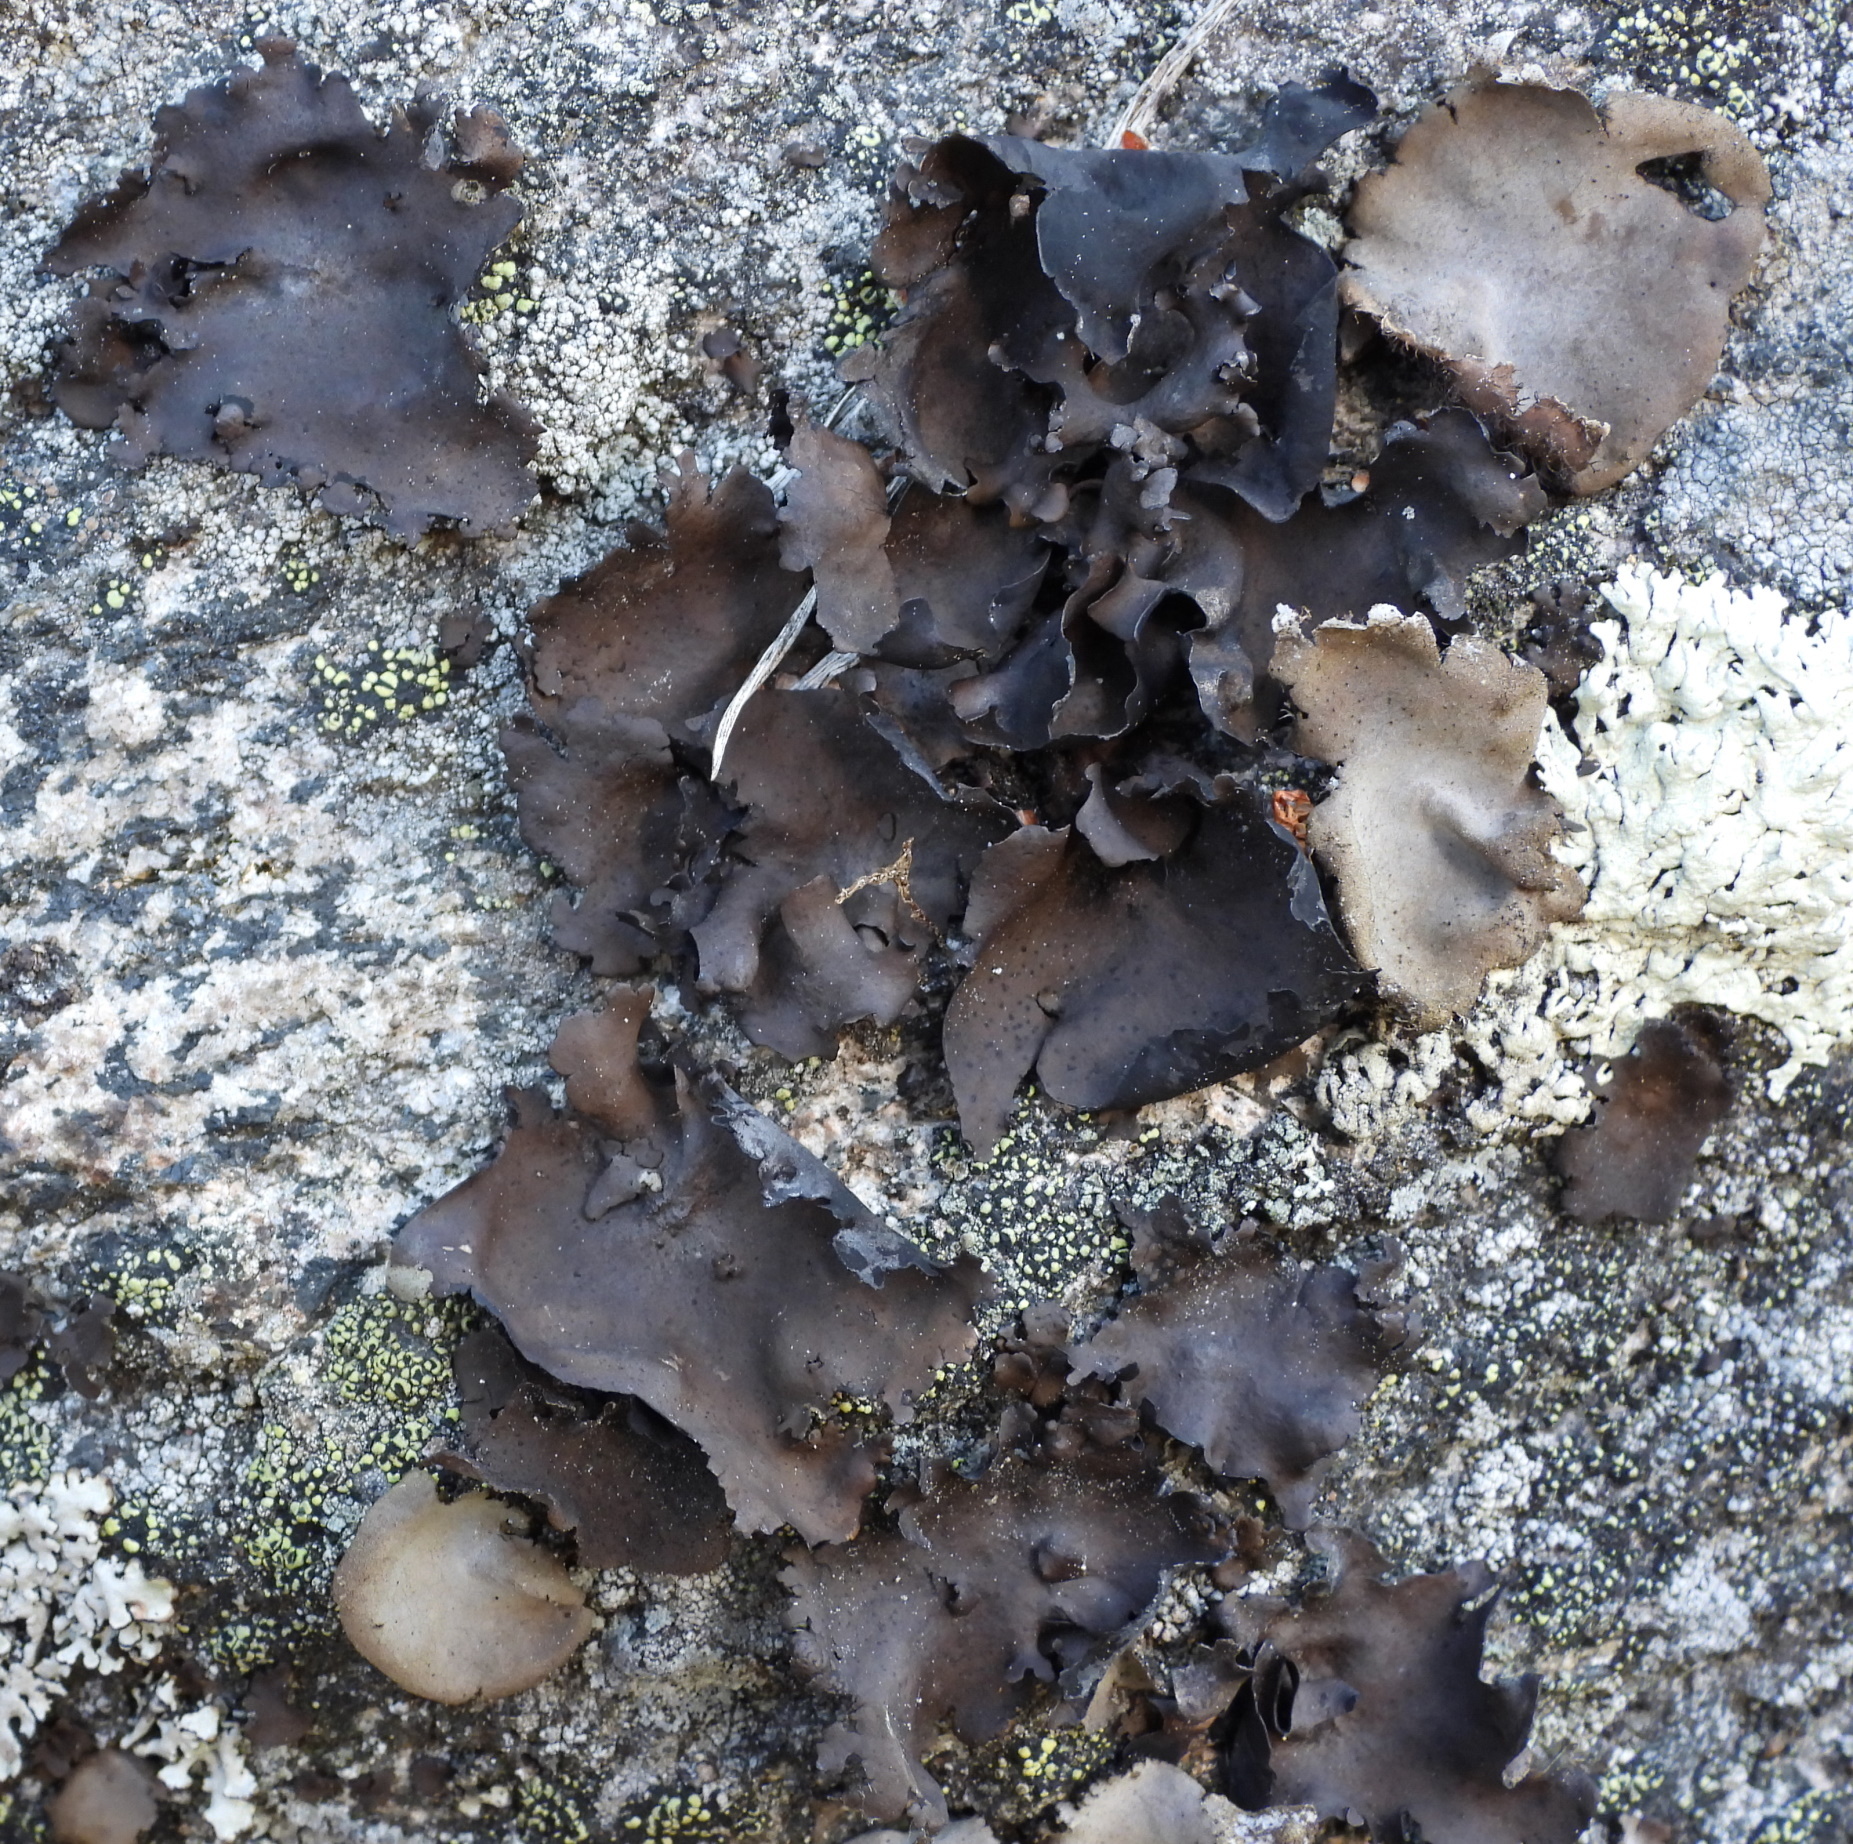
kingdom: Fungi
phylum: Ascomycota
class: Lecanoromycetes
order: Umbilicariales
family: Umbilicariaceae
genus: Umbilicaria
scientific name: Umbilicaria polyphylla
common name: Petalled rocktripe lichen
